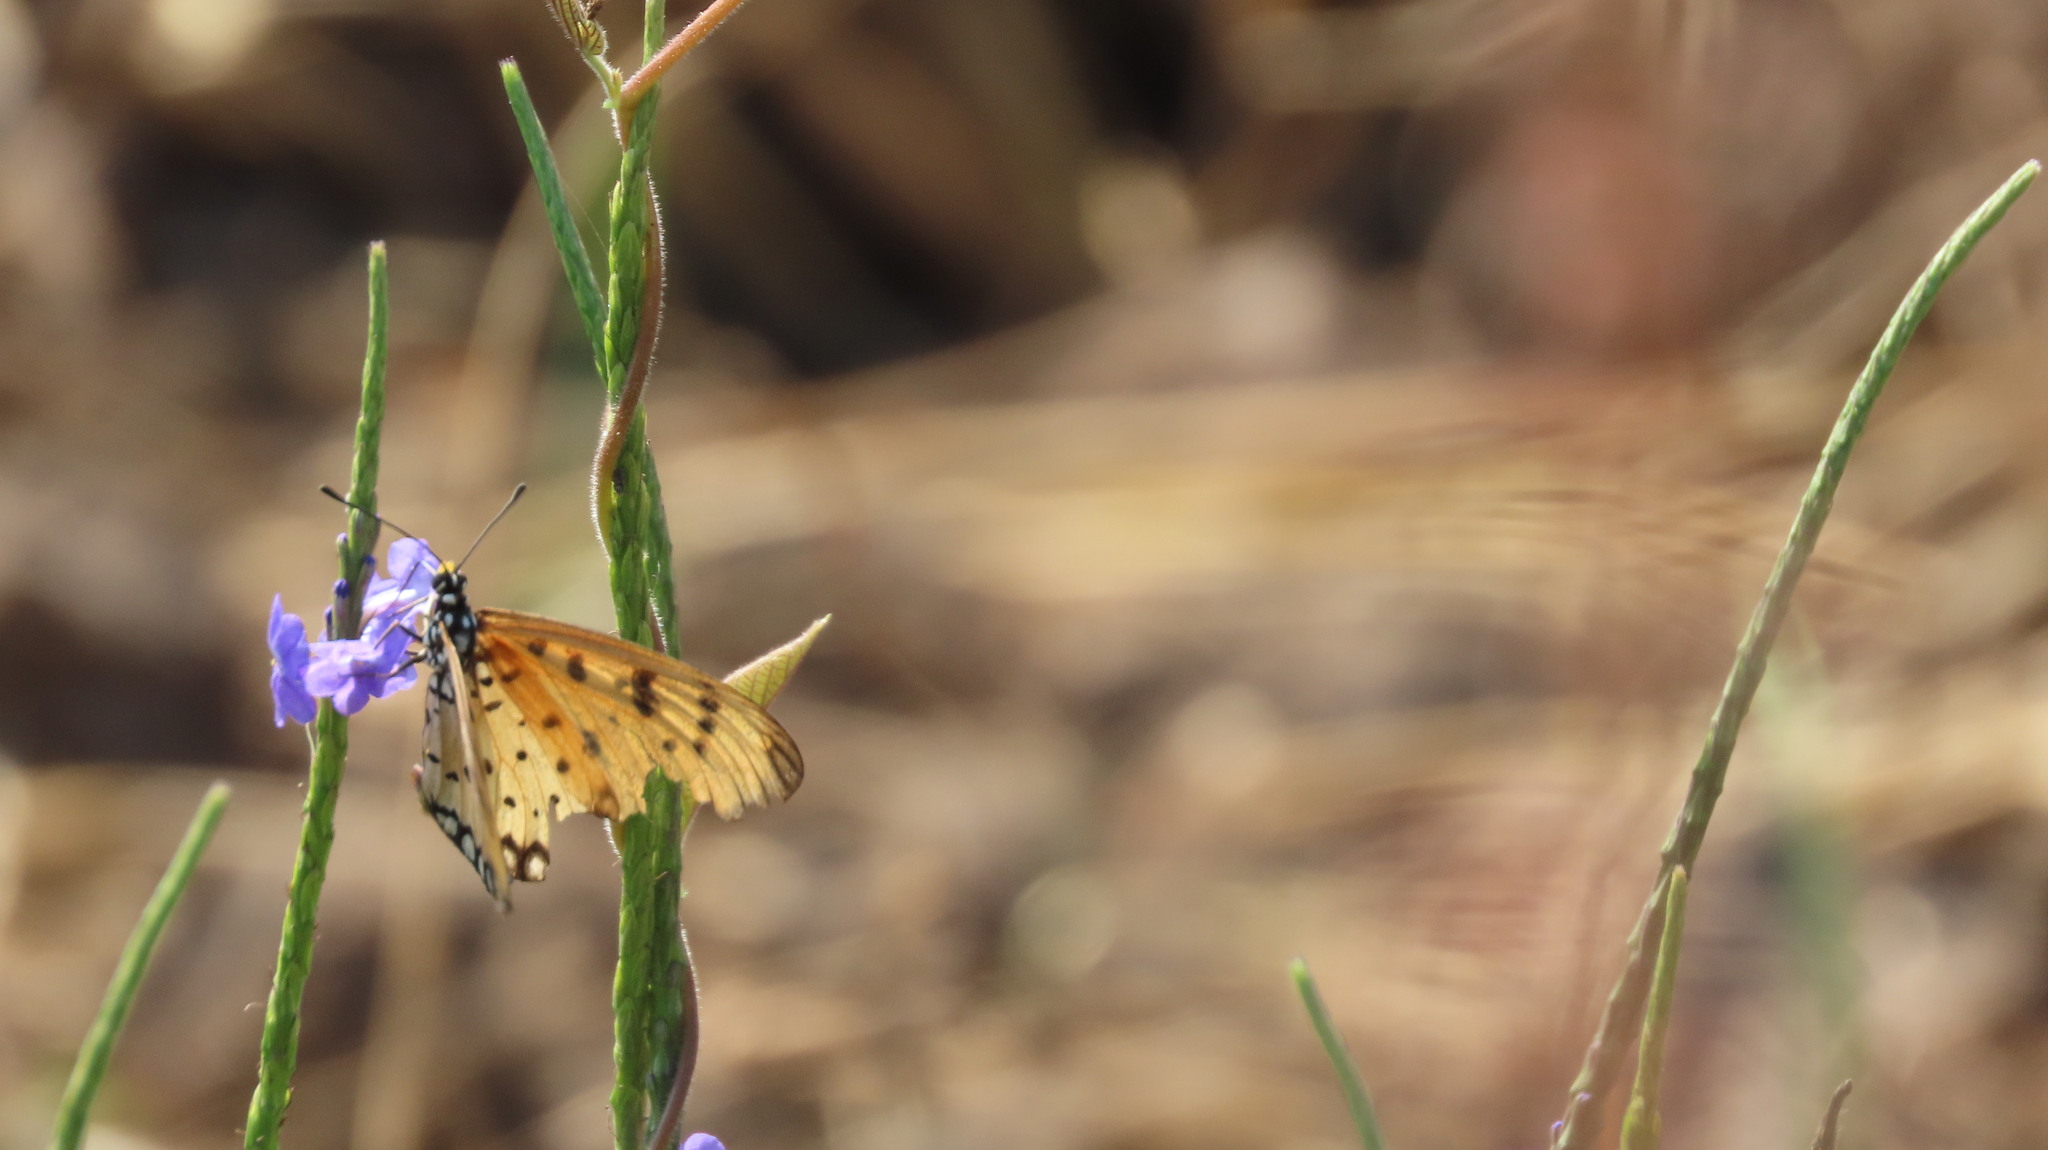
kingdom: Animalia
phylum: Arthropoda
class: Insecta
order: Lepidoptera
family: Nymphalidae
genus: Acraea
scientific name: Acraea terpsicore
